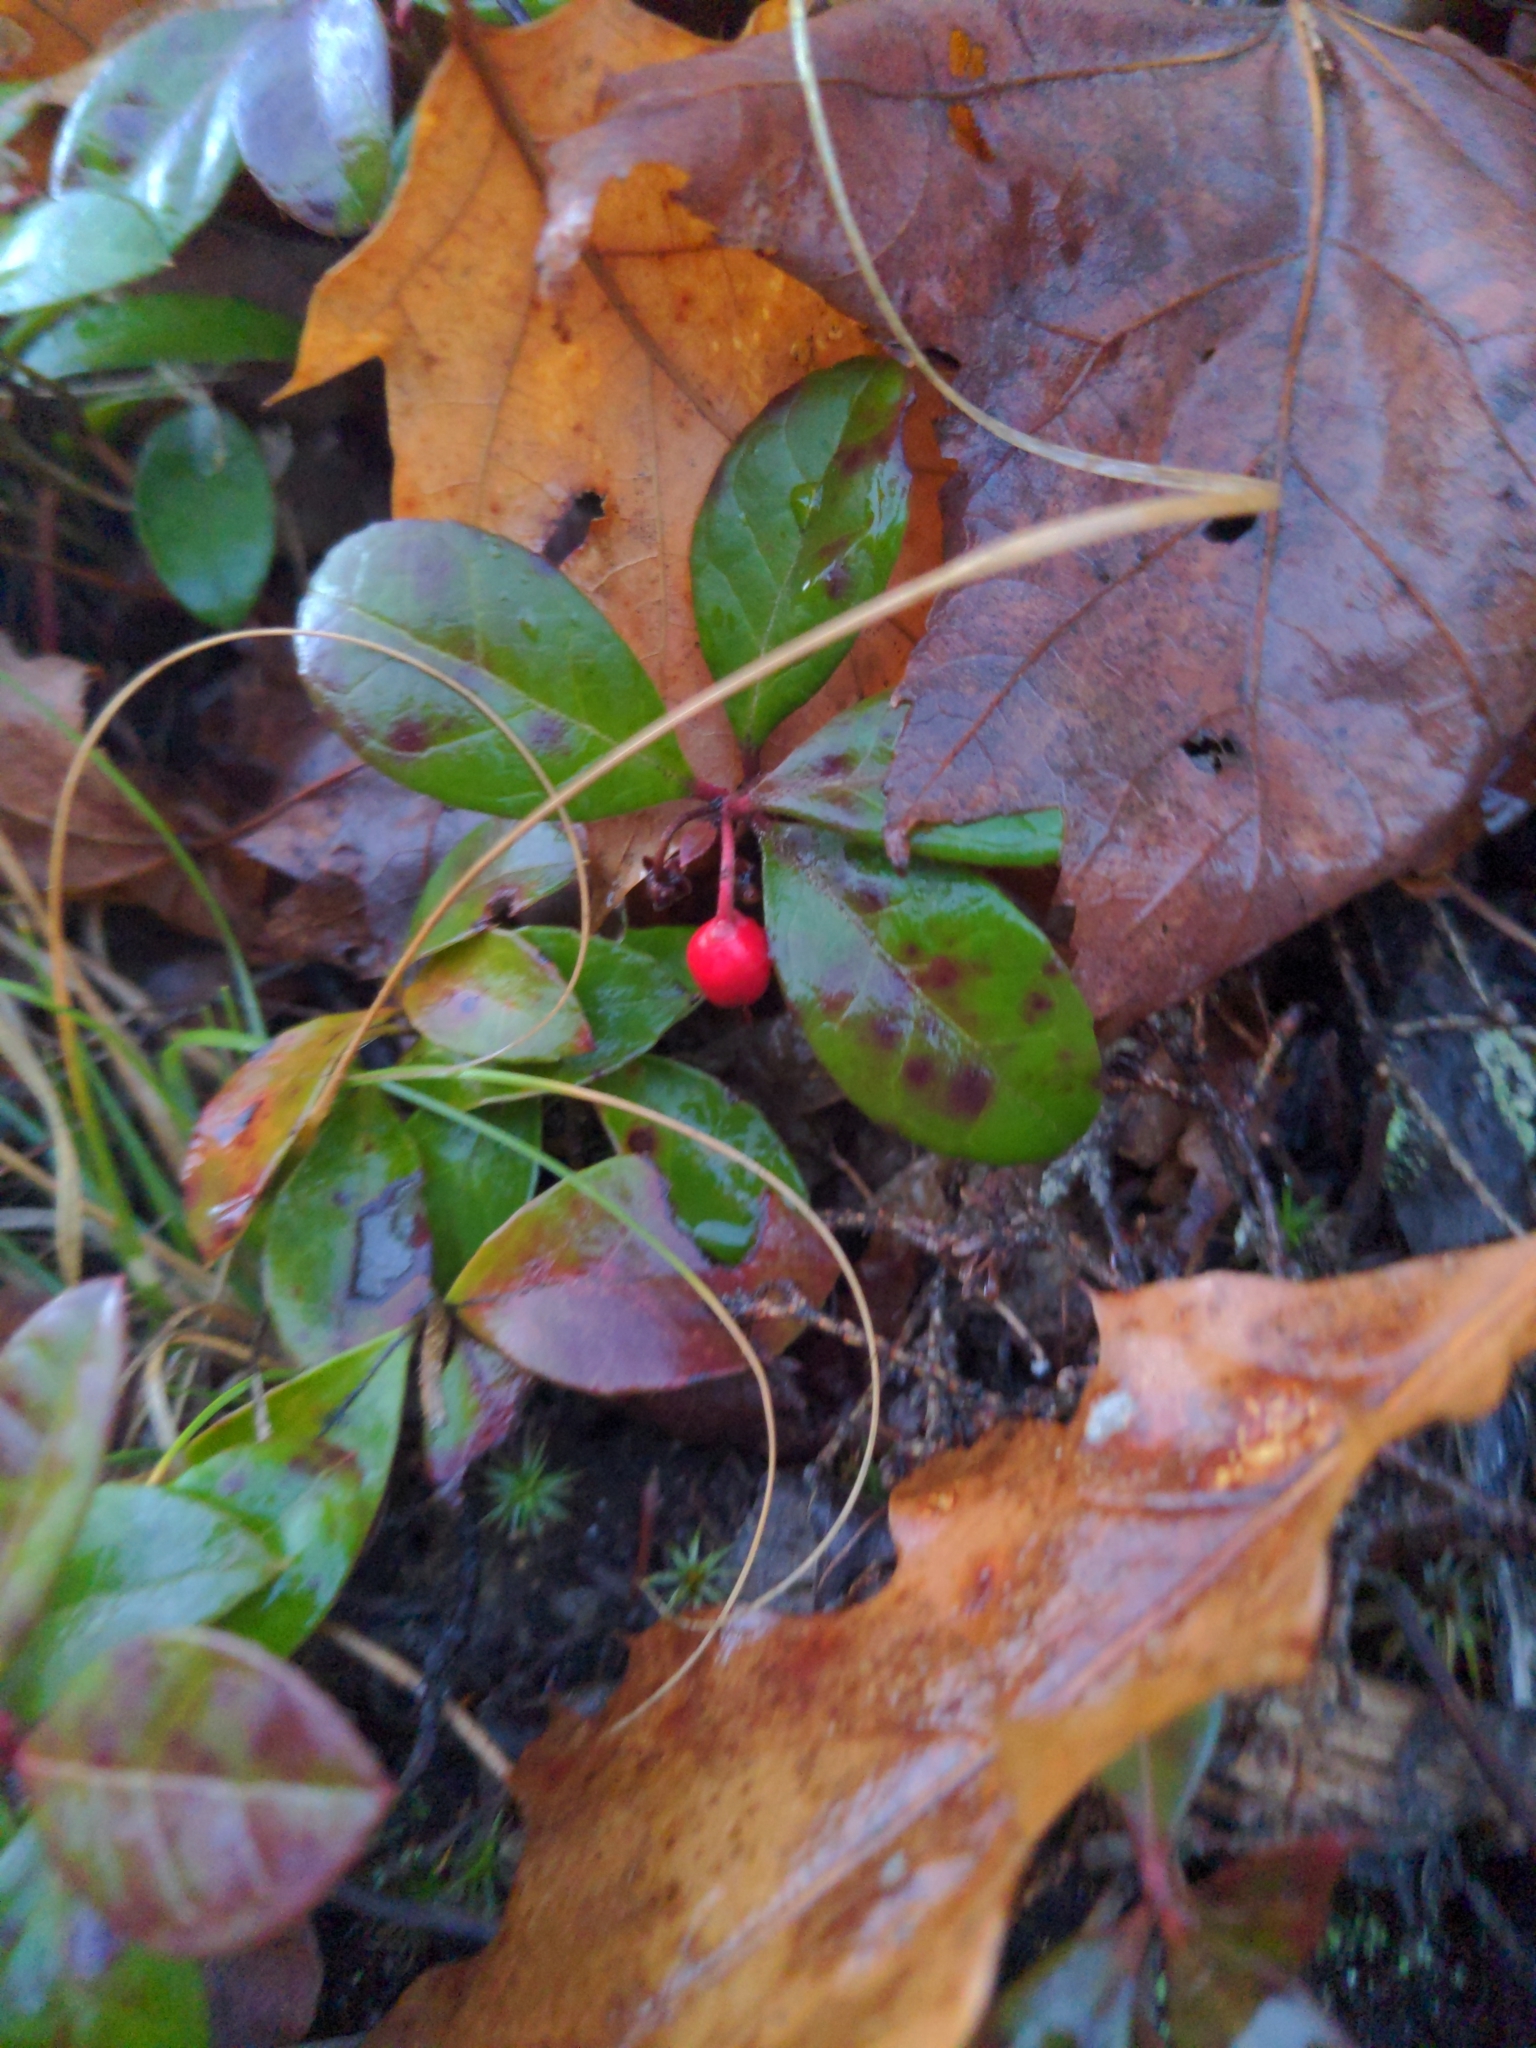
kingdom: Plantae
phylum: Tracheophyta
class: Magnoliopsida
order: Ericales
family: Ericaceae
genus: Gaultheria
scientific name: Gaultheria procumbens
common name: Checkerberry
